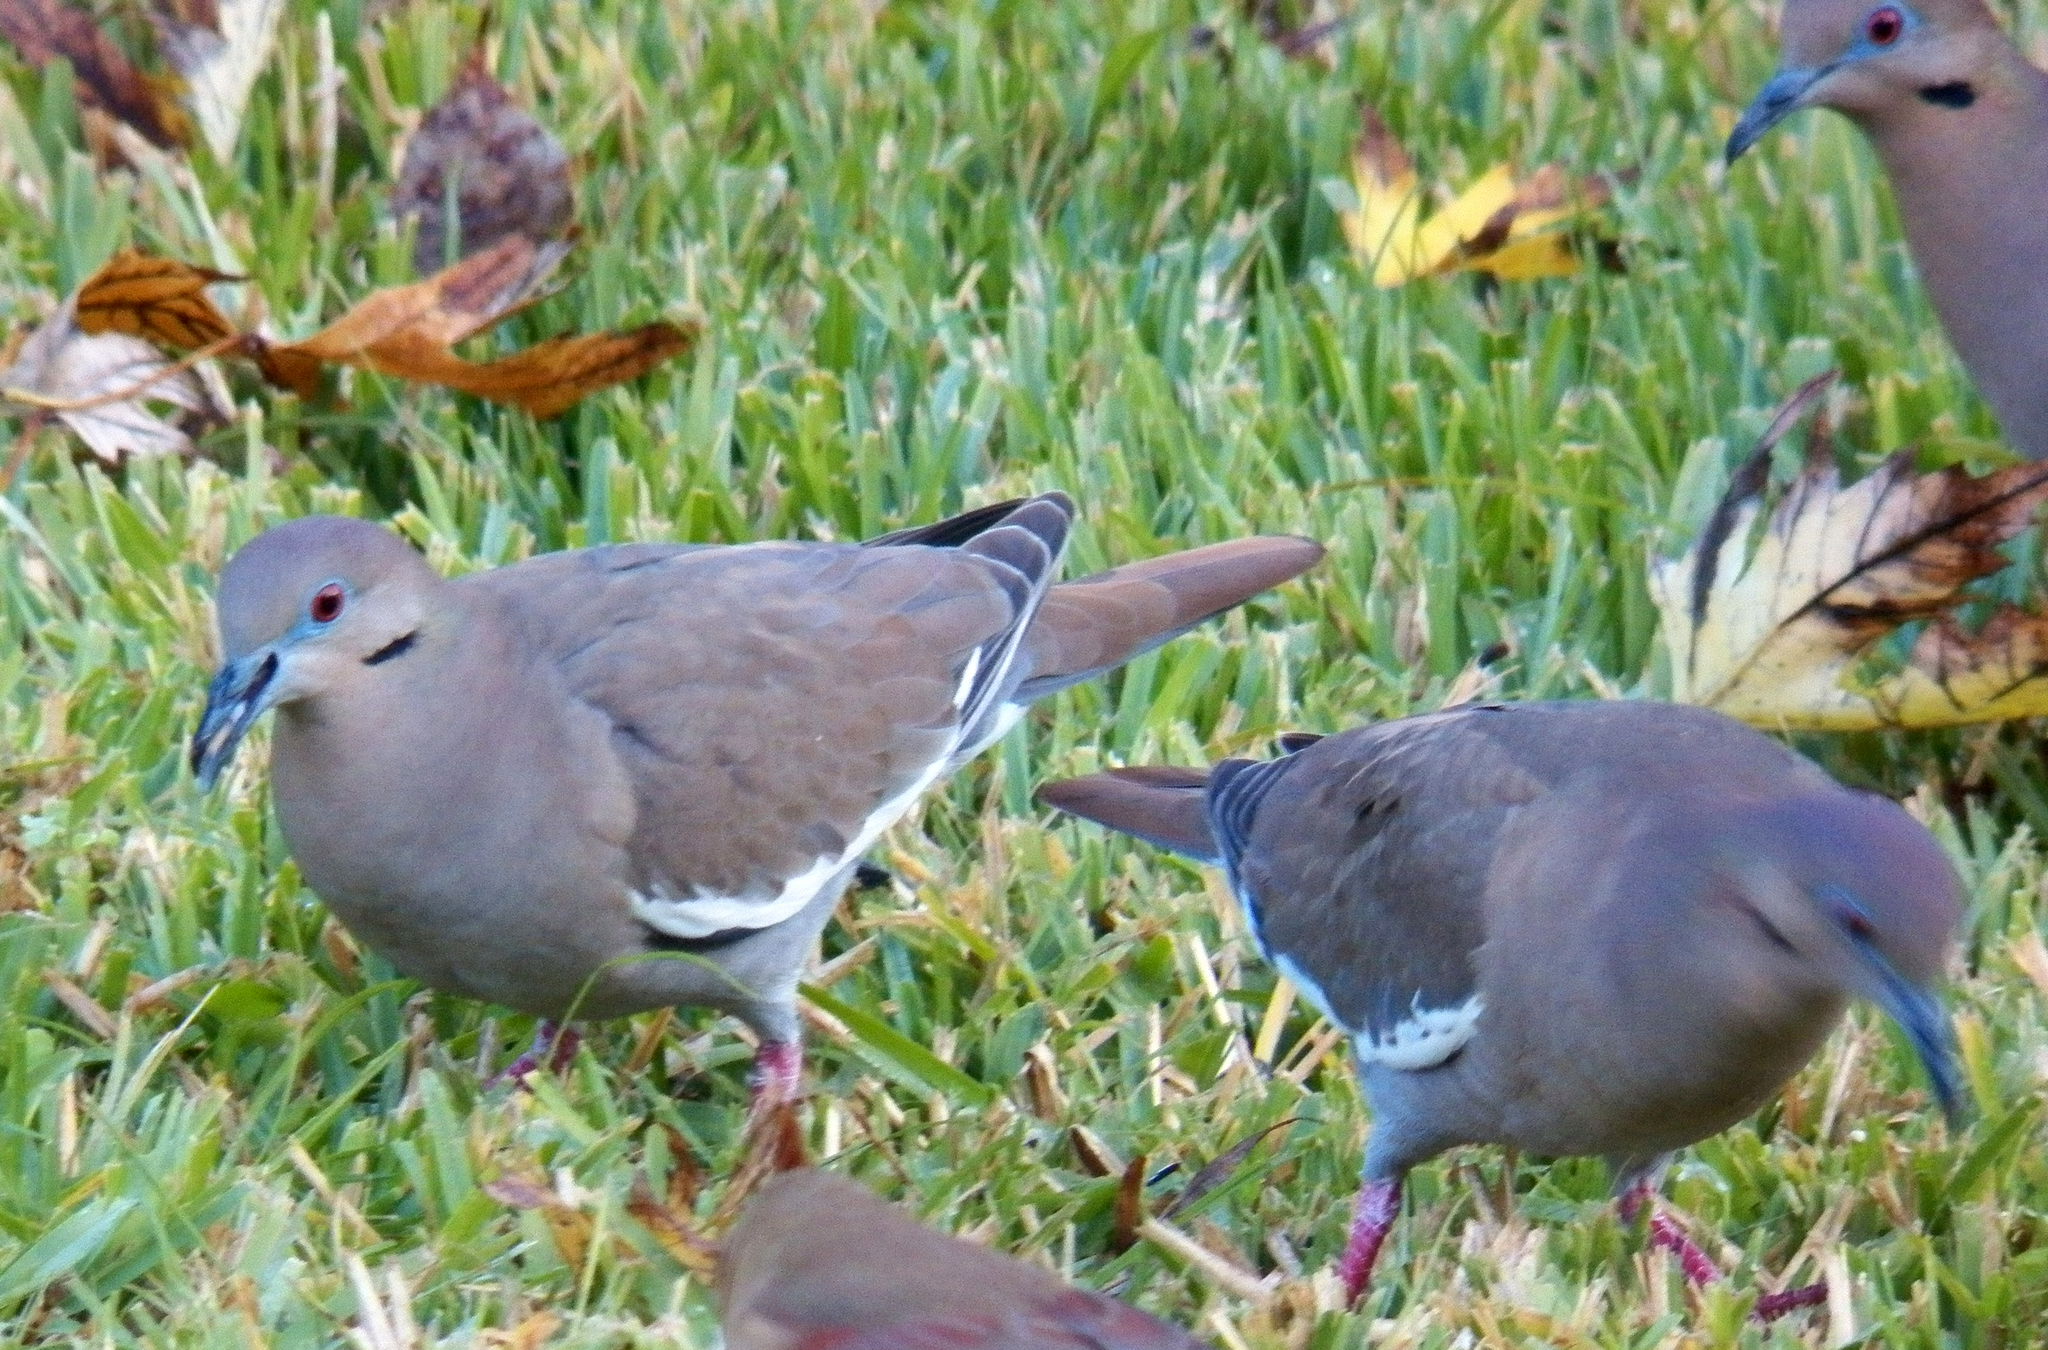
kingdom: Animalia
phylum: Chordata
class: Aves
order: Columbiformes
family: Columbidae
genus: Zenaida
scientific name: Zenaida asiatica
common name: White-winged dove
